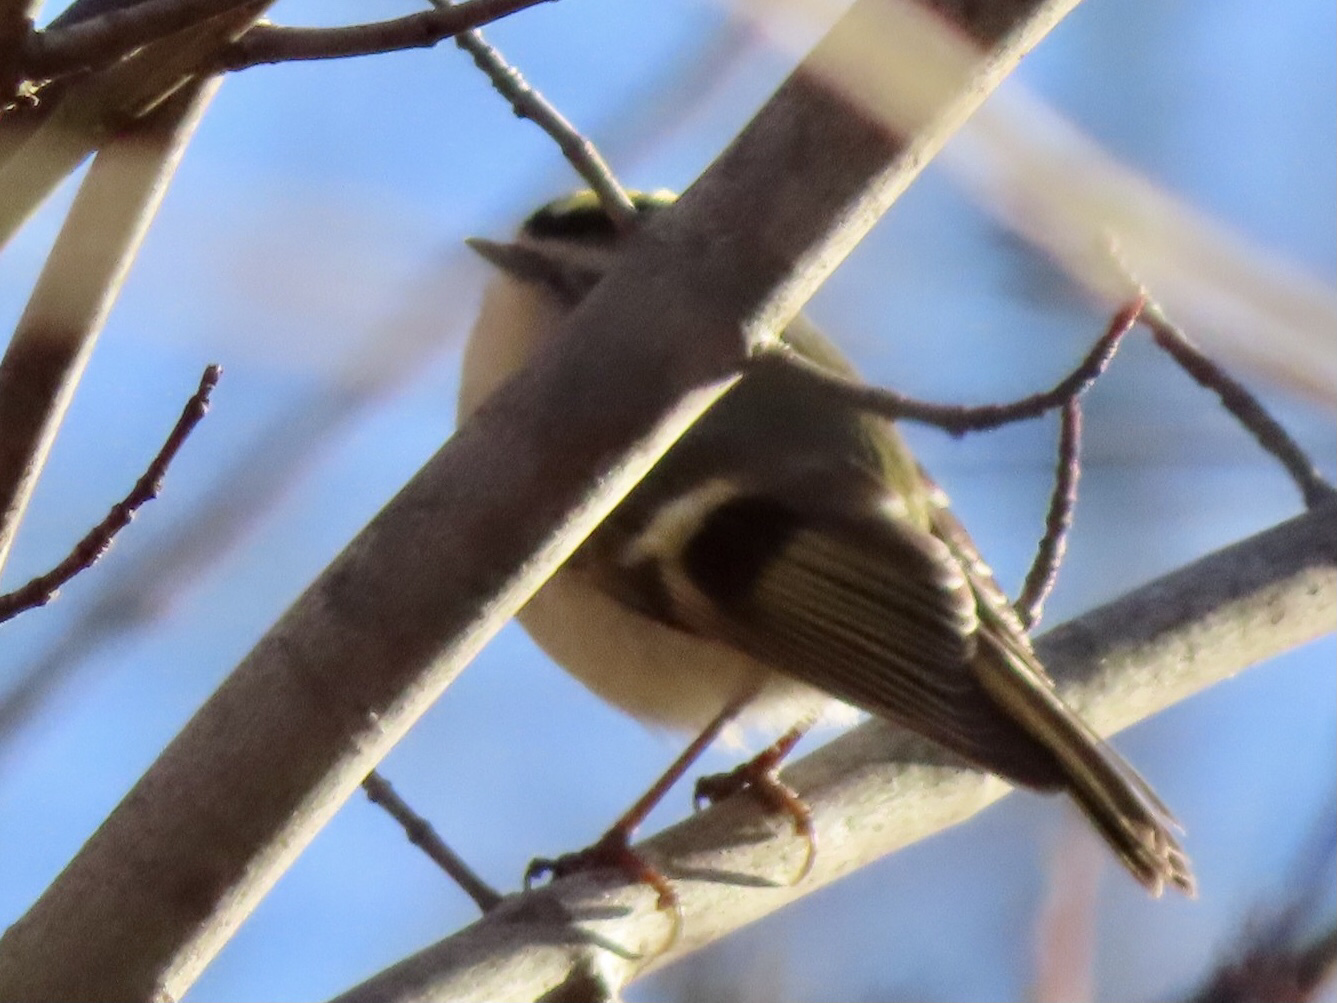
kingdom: Animalia
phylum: Chordata
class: Aves
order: Passeriformes
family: Regulidae
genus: Regulus
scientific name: Regulus satrapa
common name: Golden-crowned kinglet
